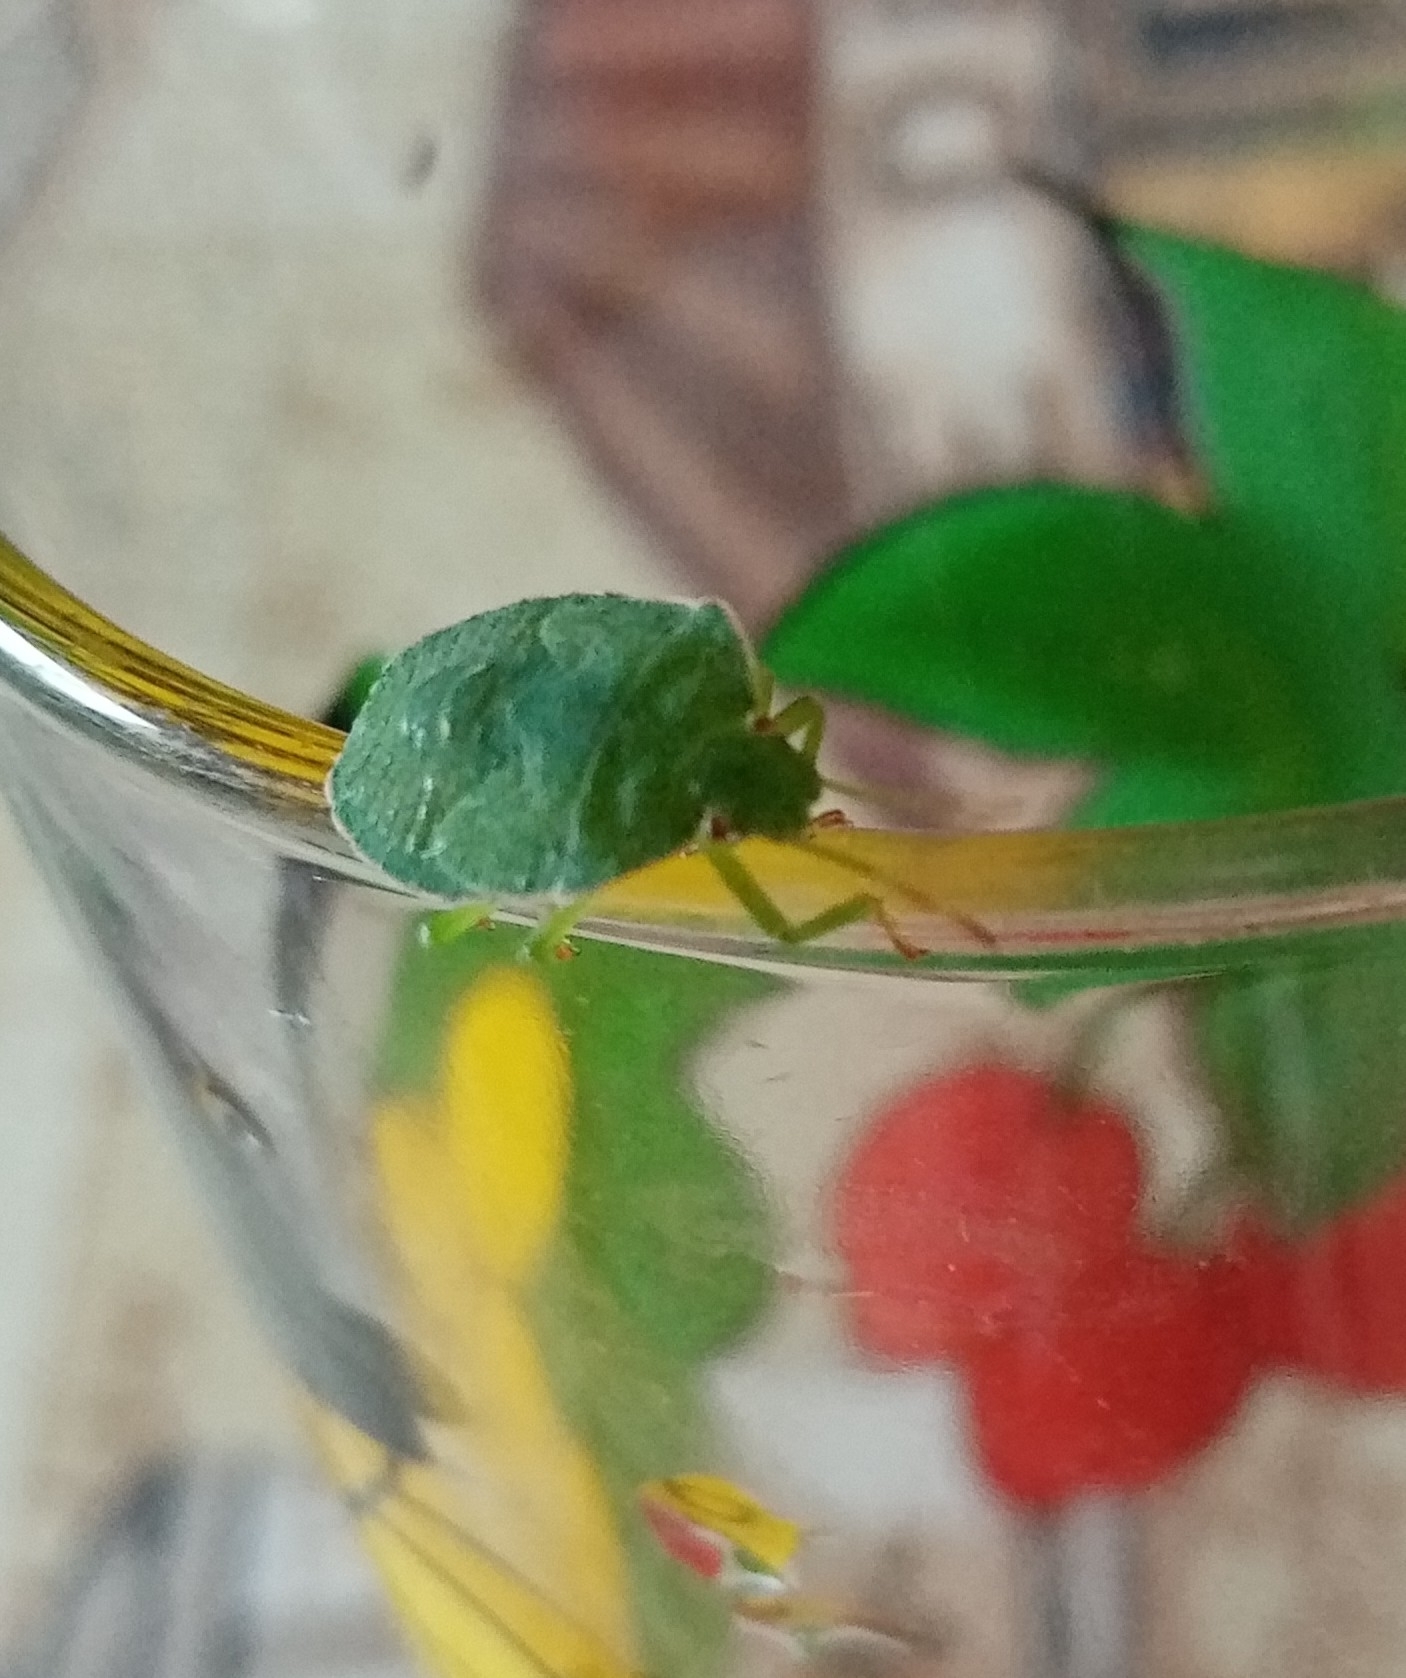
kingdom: Animalia
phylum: Arthropoda
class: Insecta
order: Hemiptera
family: Pentatomidae
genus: Palomena
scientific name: Palomena prasina
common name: Green shieldbug
